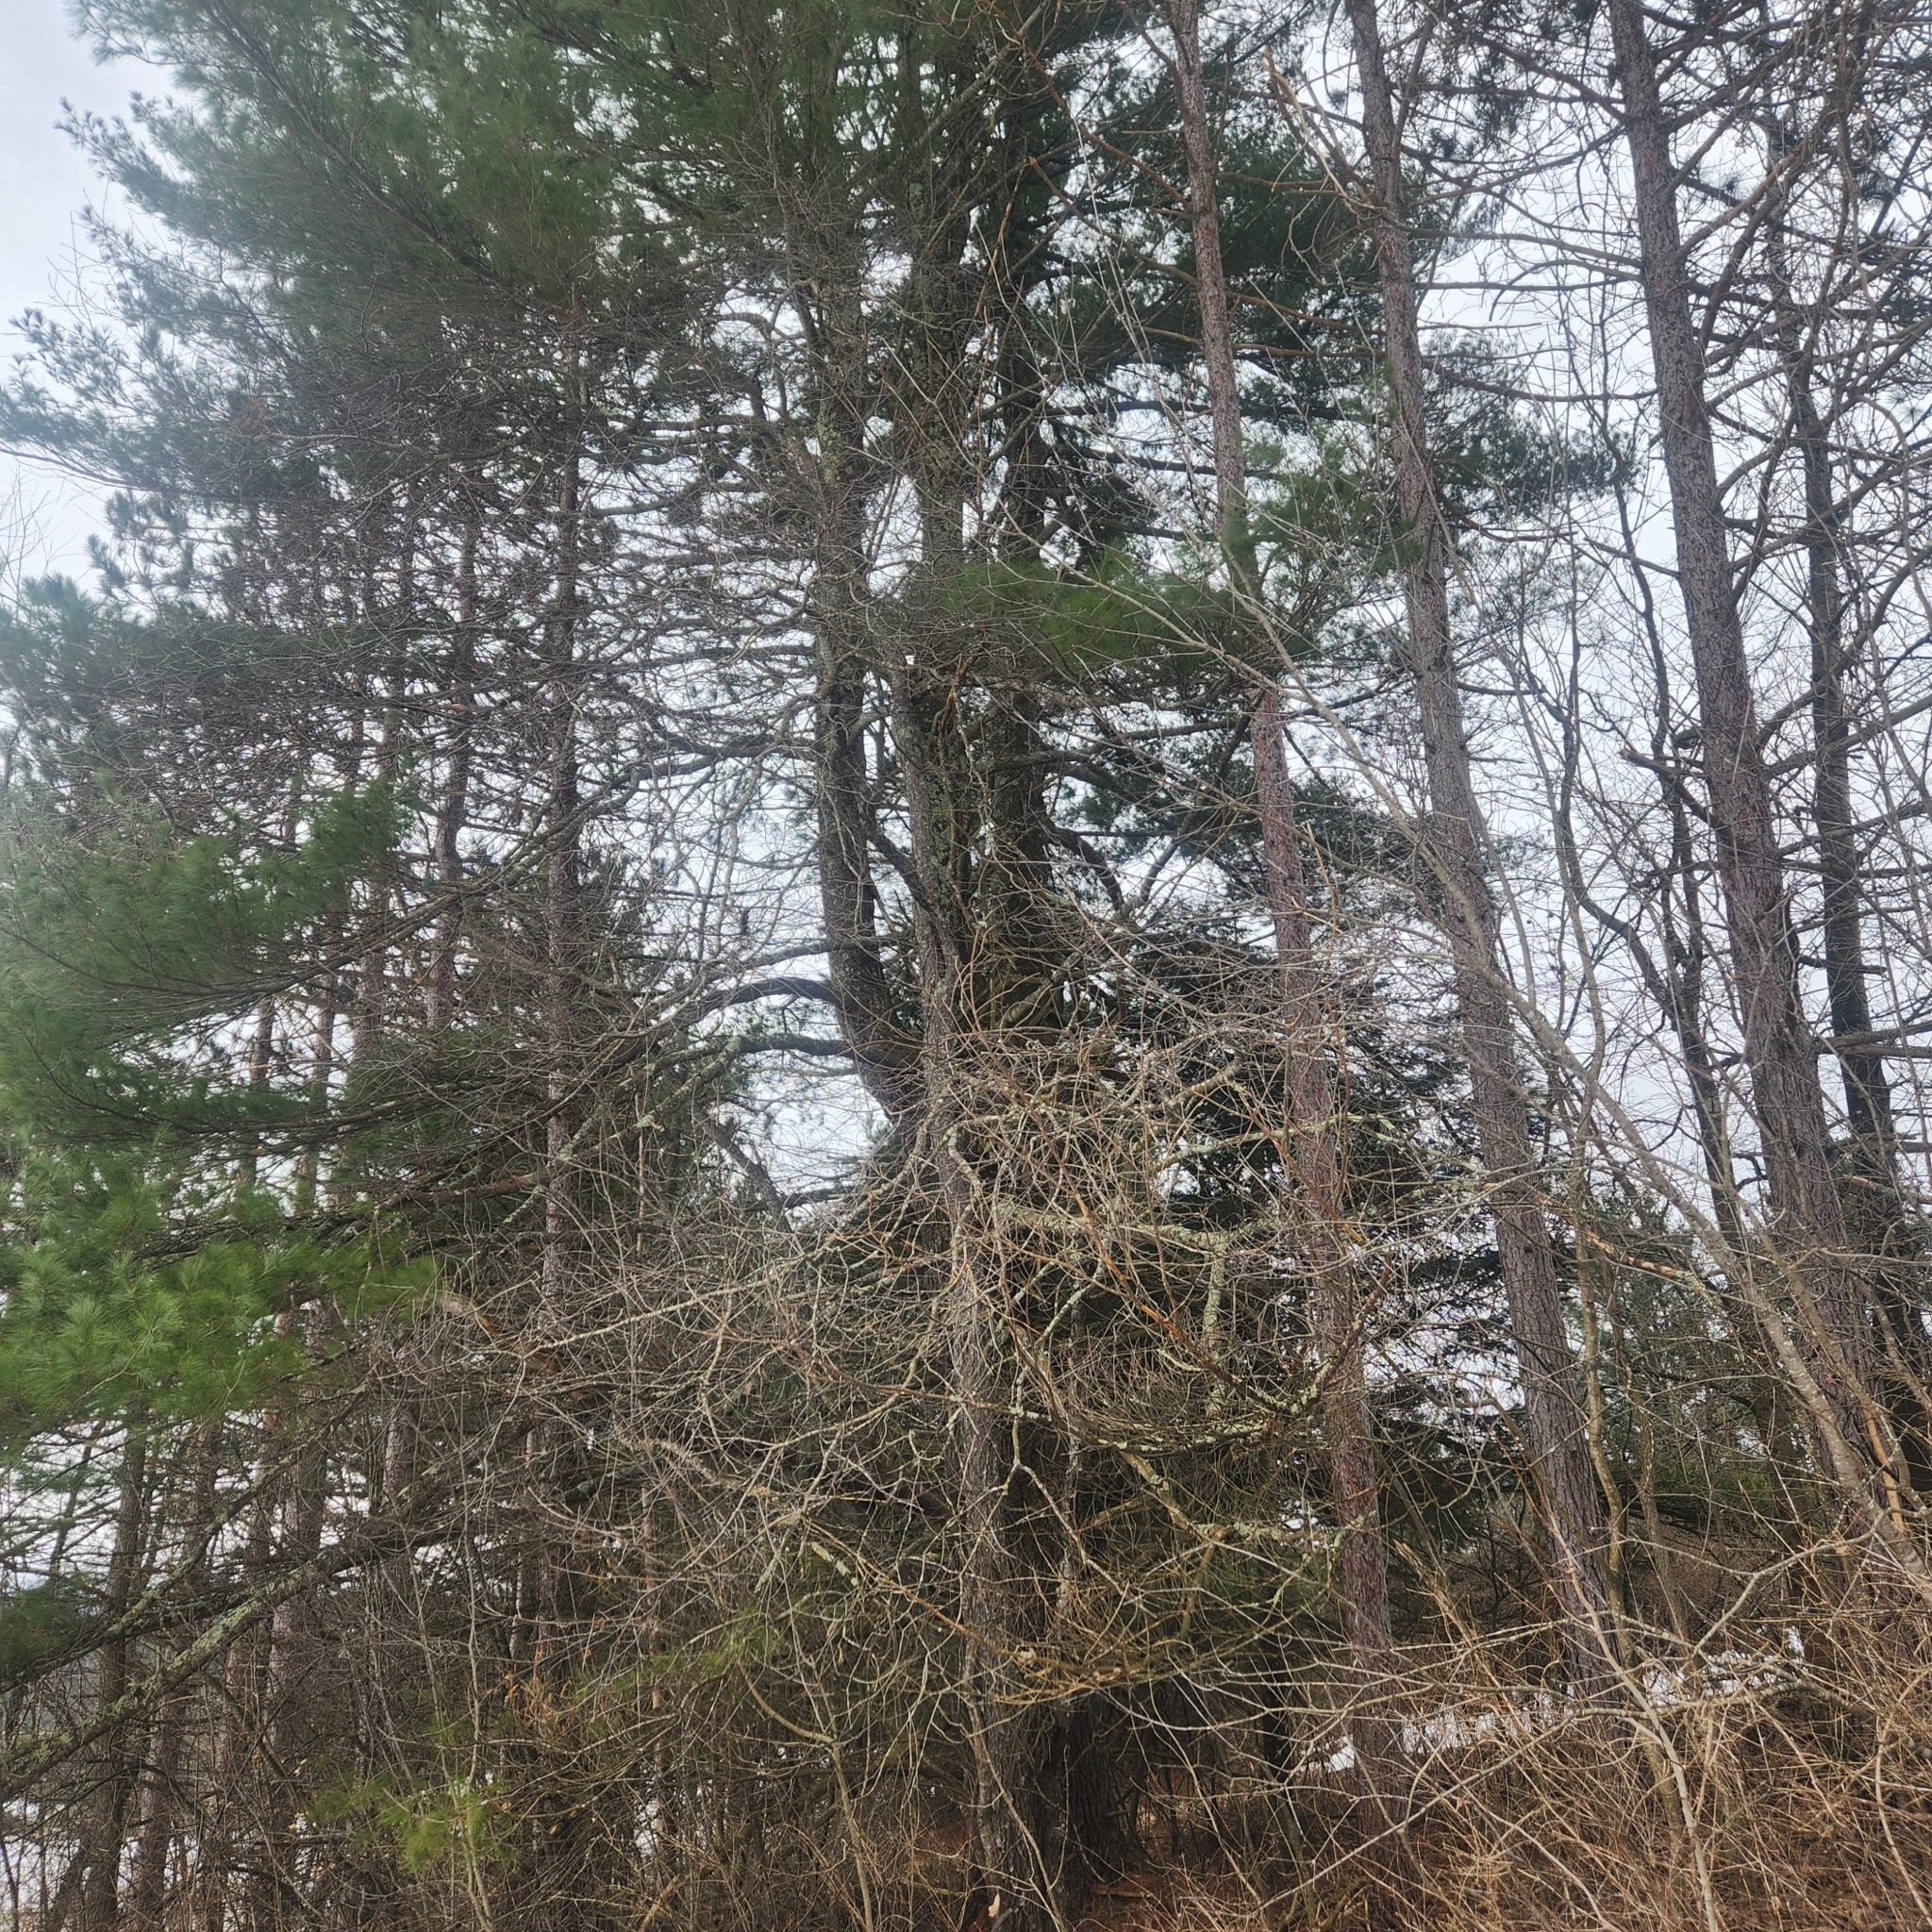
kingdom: Plantae
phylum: Tracheophyta
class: Pinopsida
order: Pinales
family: Pinaceae
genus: Pinus
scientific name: Pinus strobus
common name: Weymouth pine
